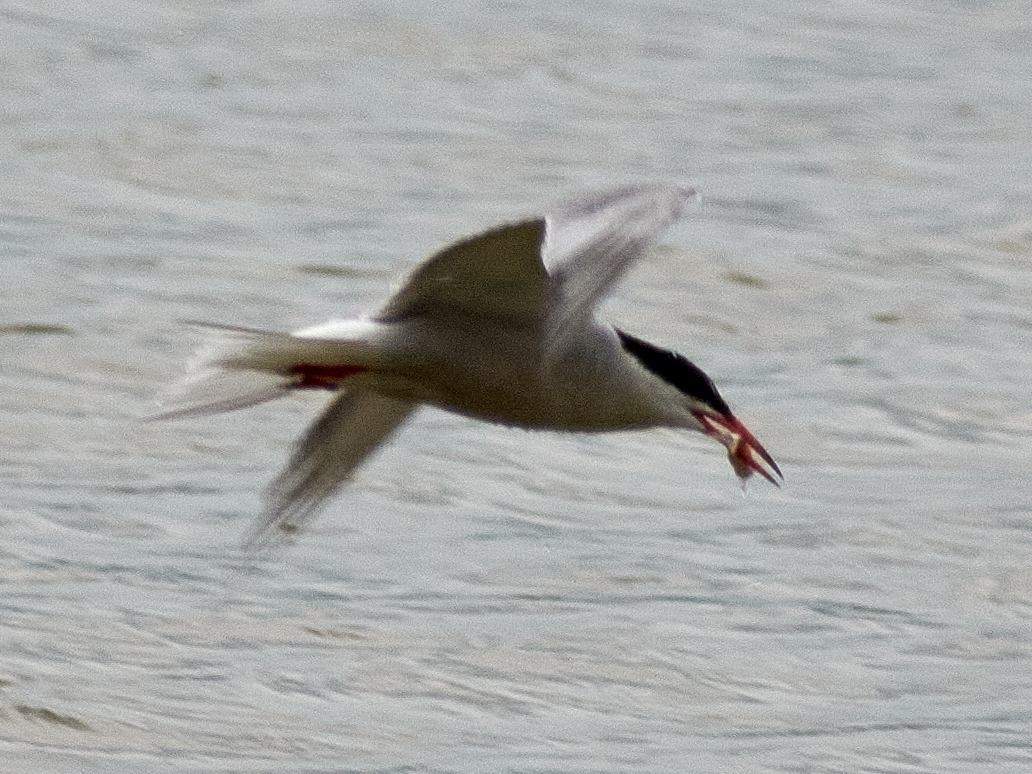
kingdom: Animalia
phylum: Chordata
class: Aves
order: Charadriiformes
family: Laridae
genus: Sterna
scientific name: Sterna hirundo
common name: Common tern
